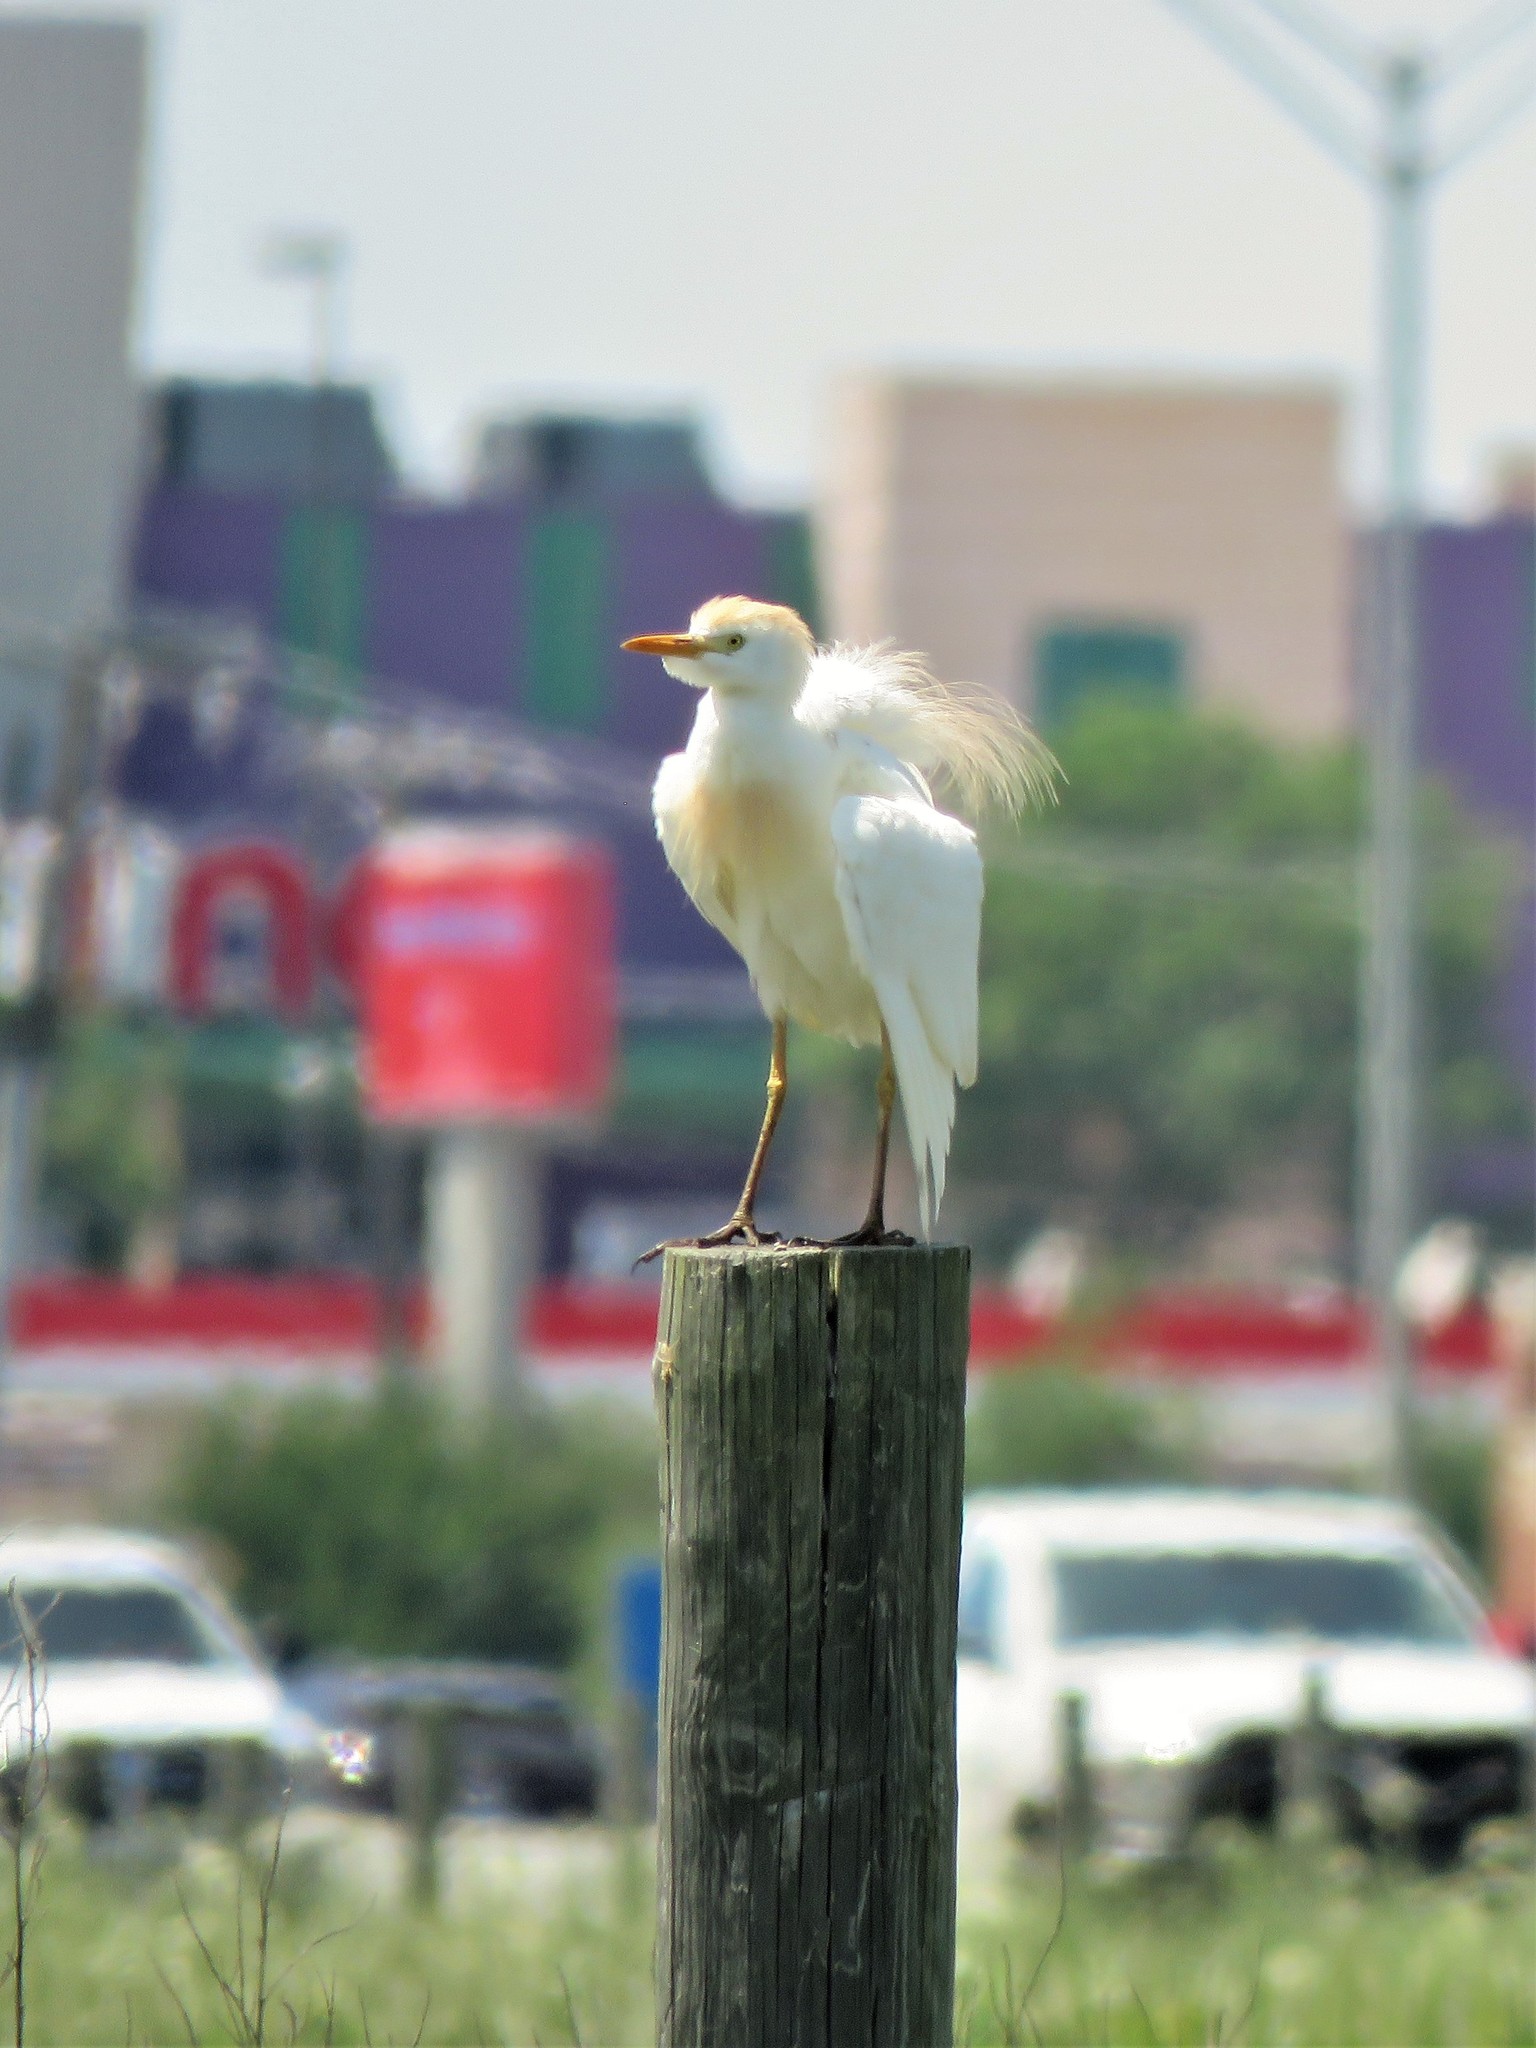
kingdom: Animalia
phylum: Chordata
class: Aves
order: Pelecaniformes
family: Ardeidae
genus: Bubulcus
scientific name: Bubulcus ibis
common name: Cattle egret
